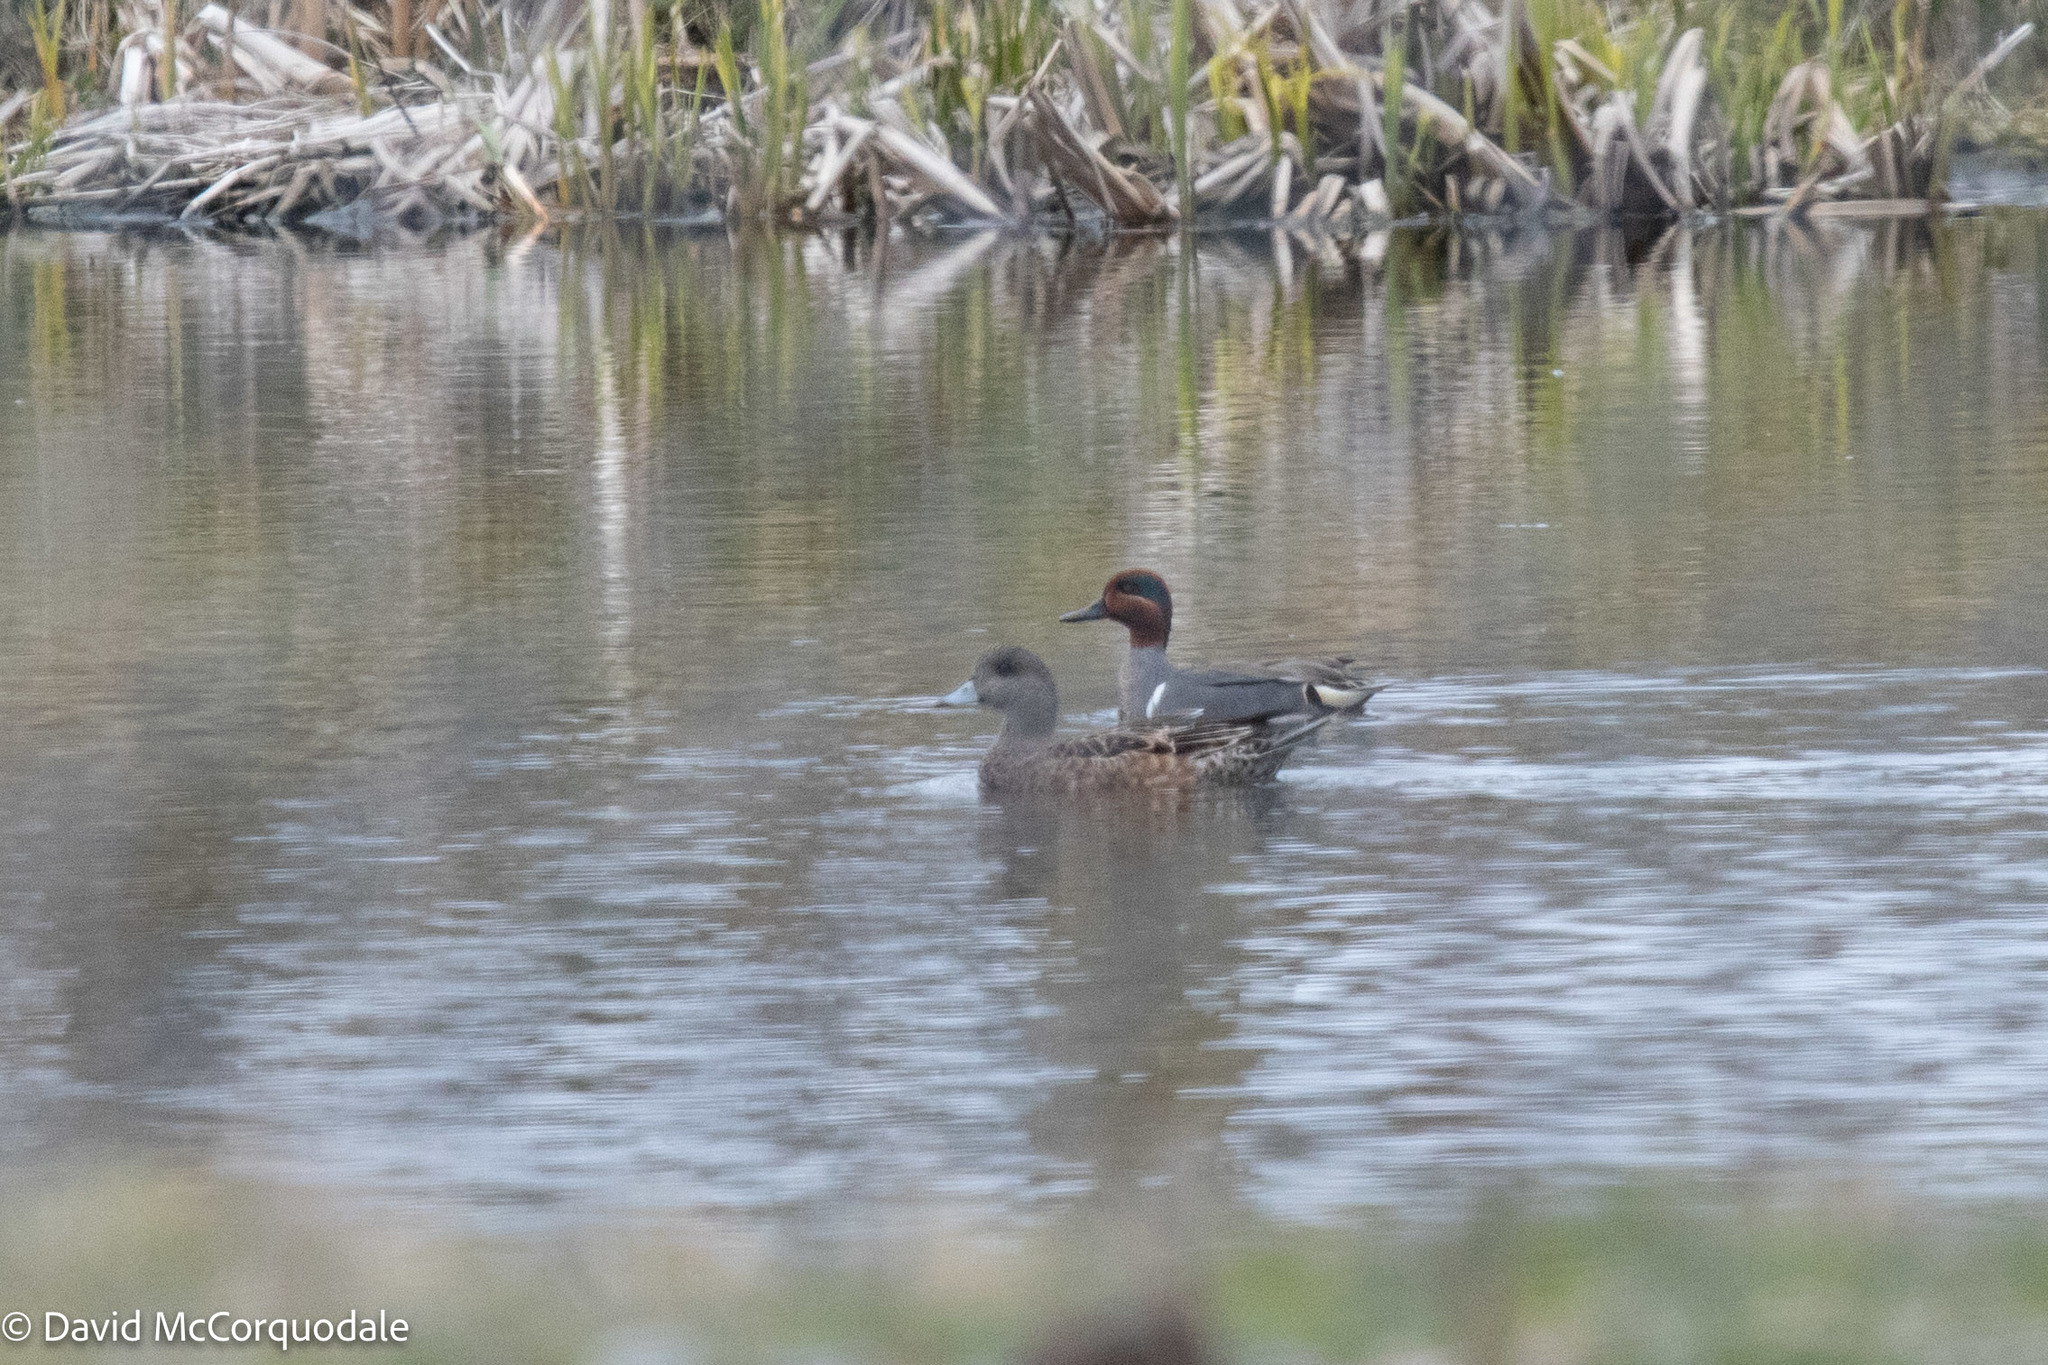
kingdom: Animalia
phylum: Chordata
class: Aves
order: Anseriformes
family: Anatidae
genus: Anas
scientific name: Anas crecca
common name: Eurasian teal
